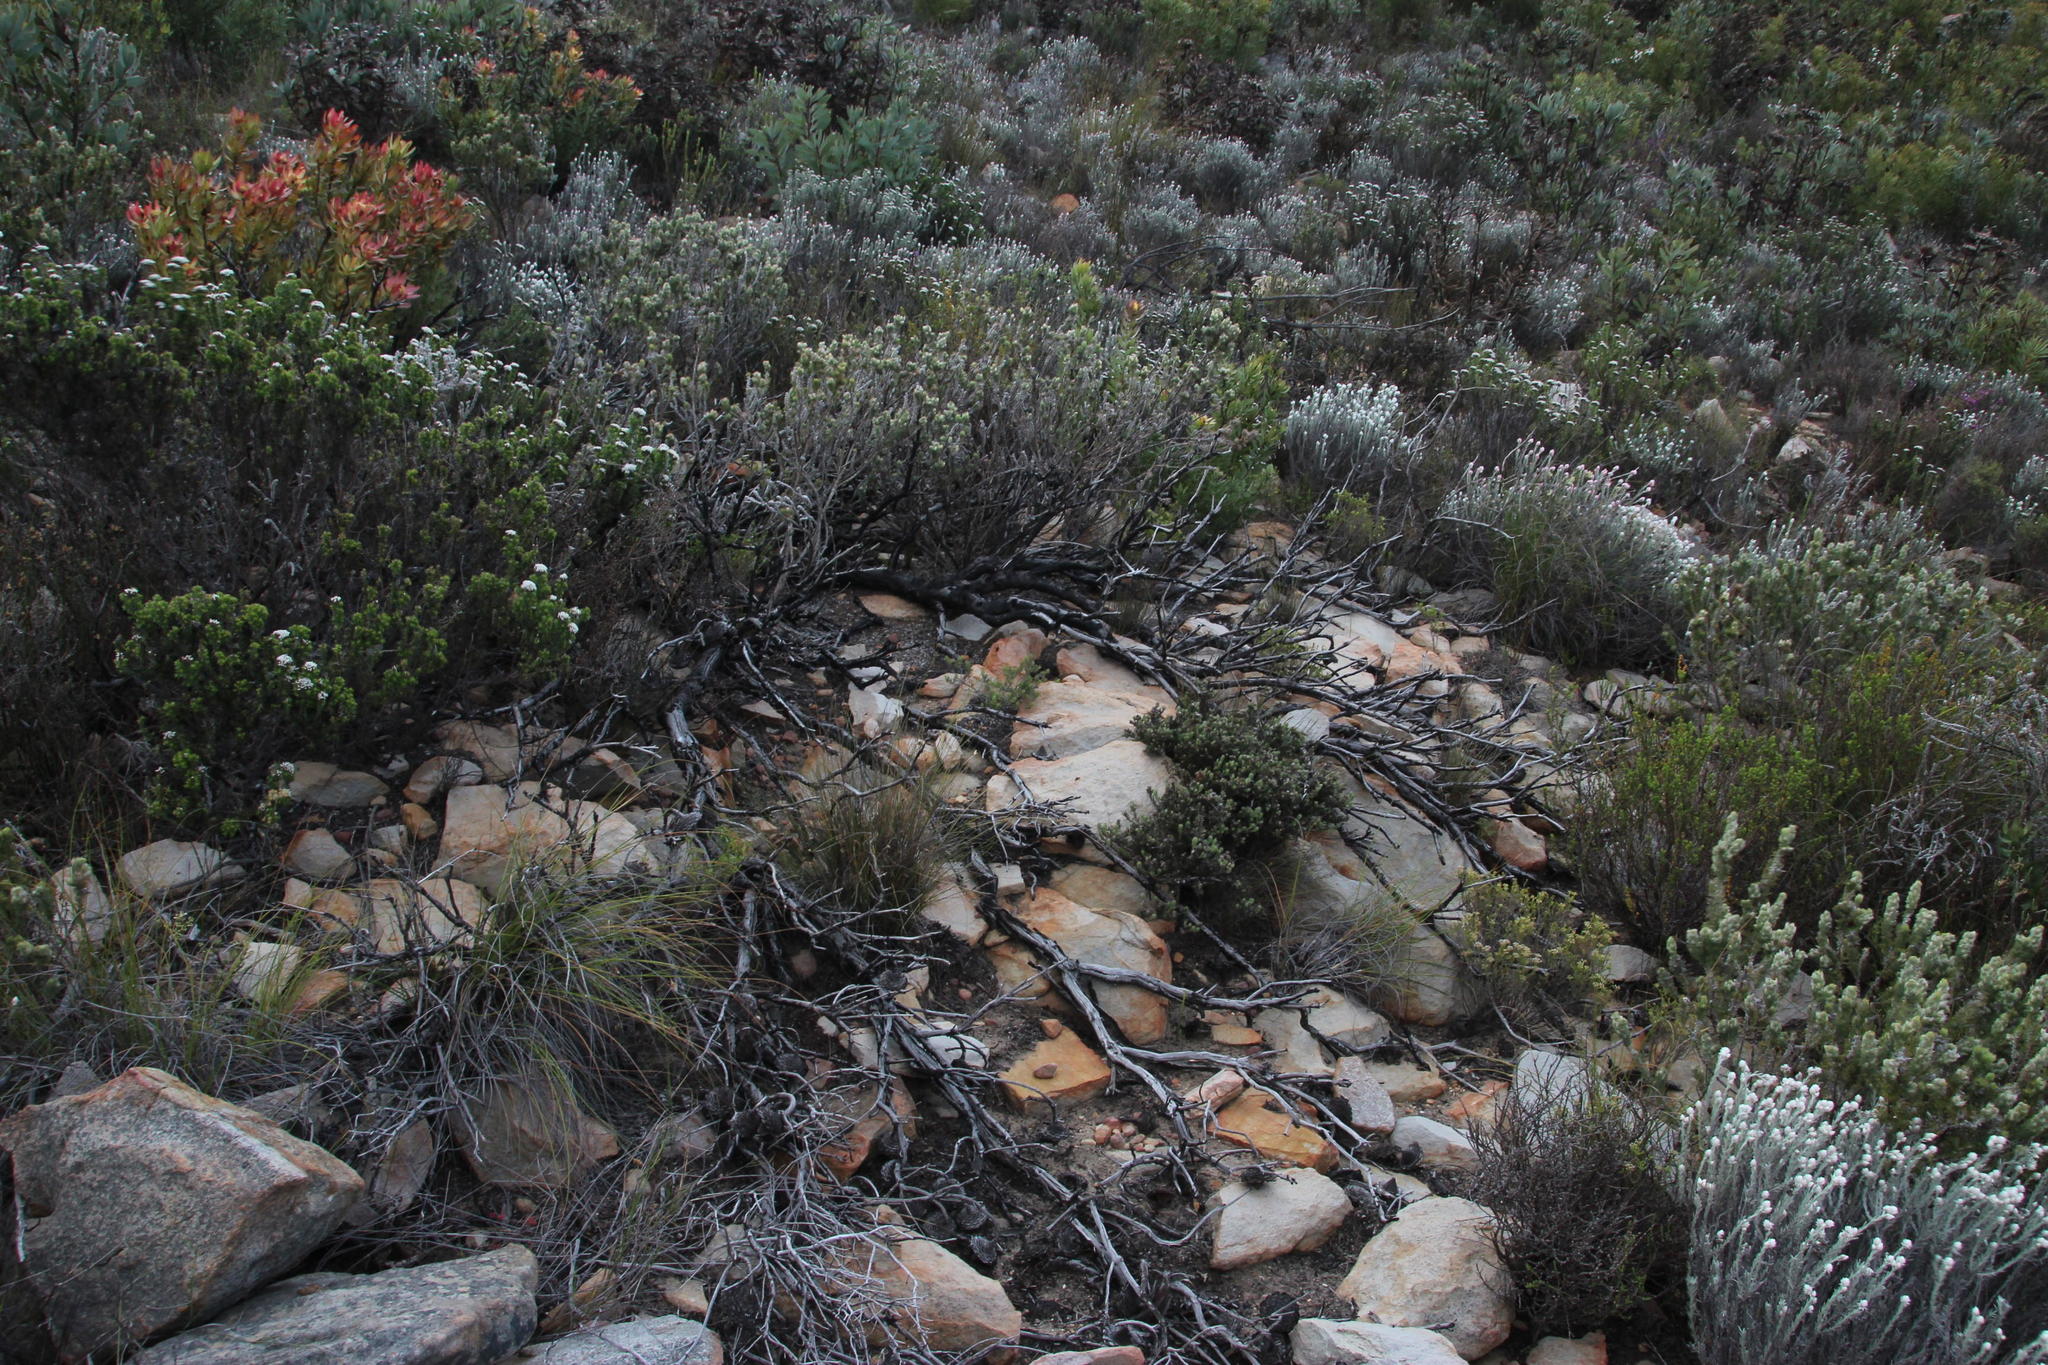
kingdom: Plantae
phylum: Tracheophyta
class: Magnoliopsida
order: Proteales
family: Proteaceae
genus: Protea
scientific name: Protea sulphurea
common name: Sulphur sugarbush
